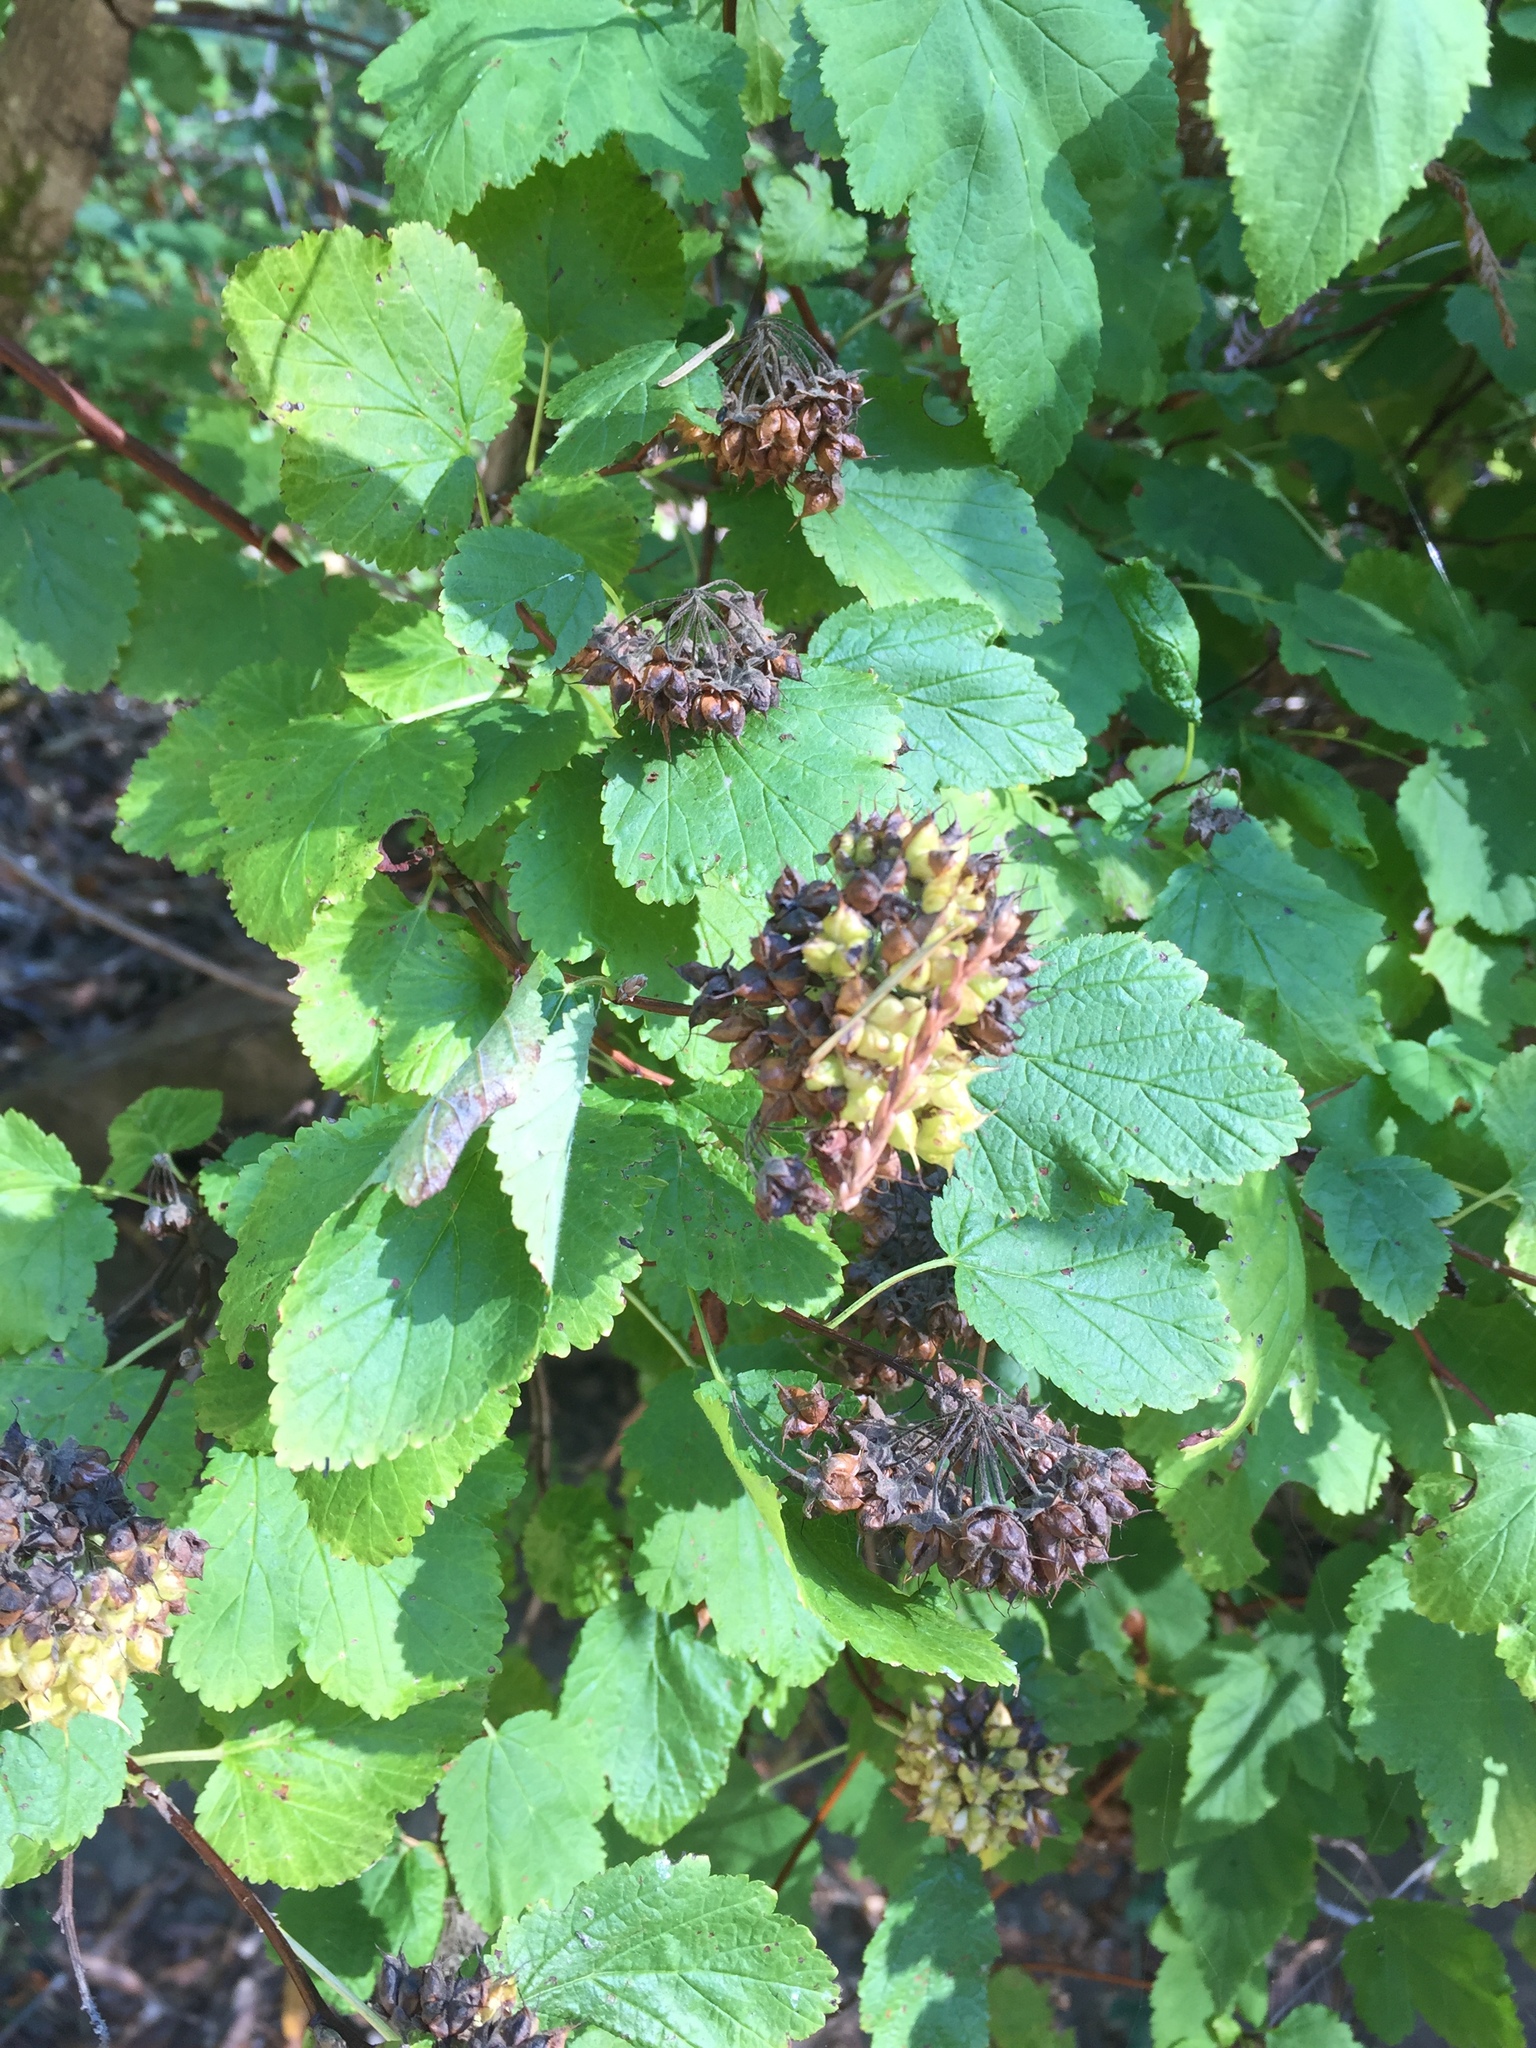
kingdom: Plantae
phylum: Tracheophyta
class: Magnoliopsida
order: Rosales
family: Rosaceae
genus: Physocarpus
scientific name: Physocarpus capitatus
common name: Pacific ninebark
